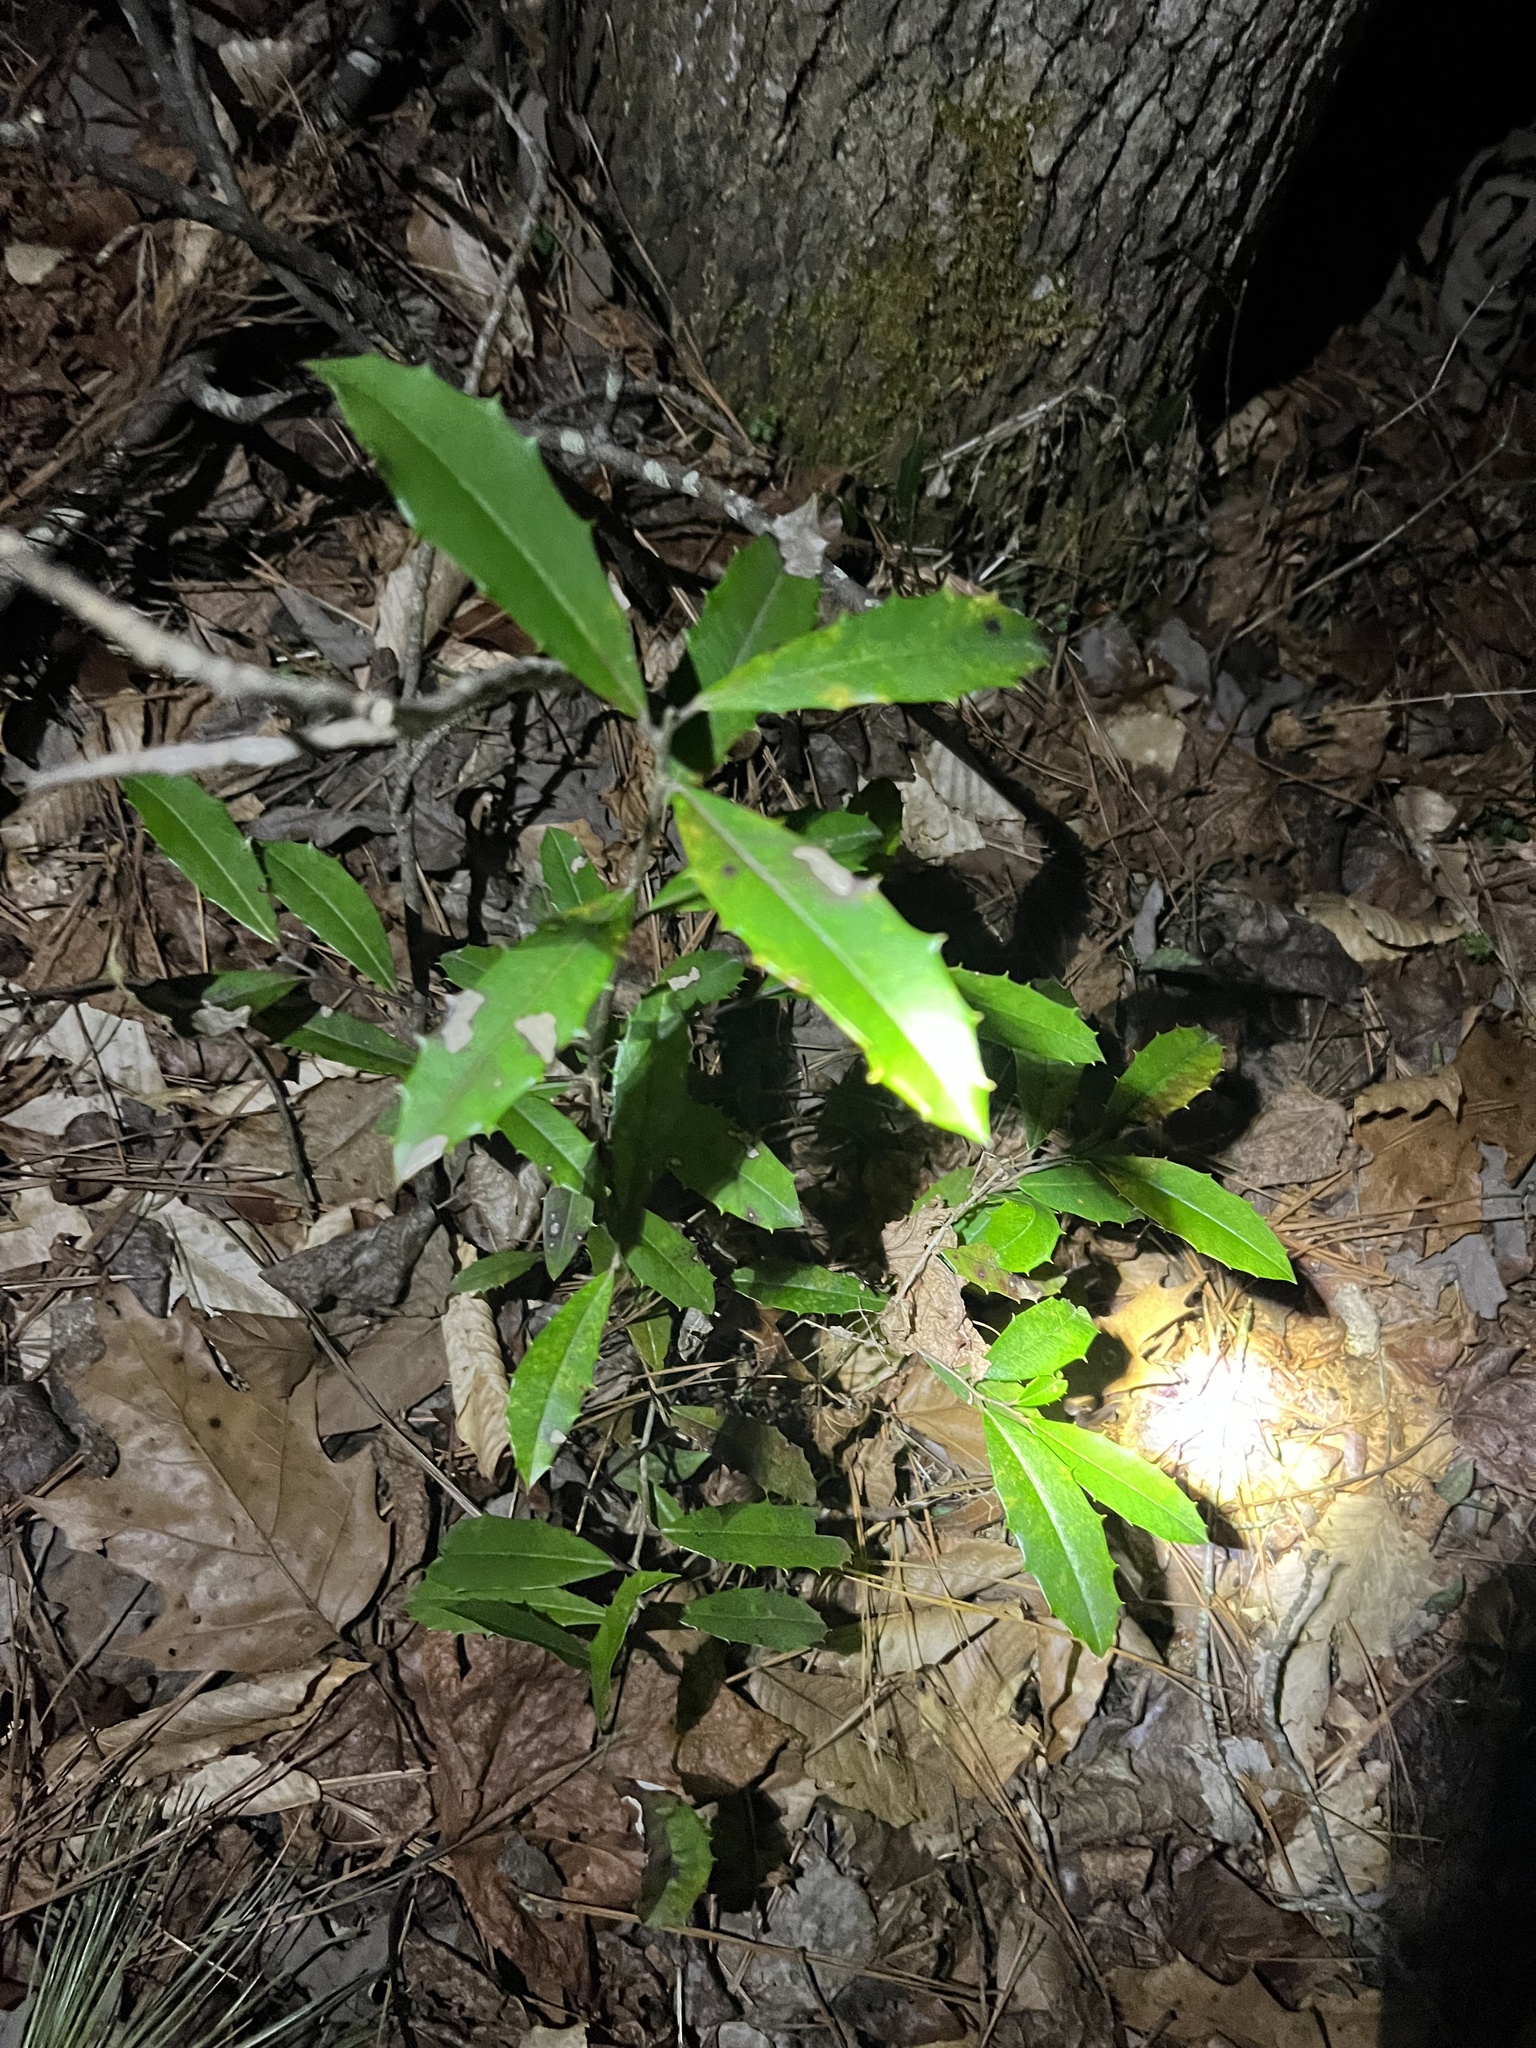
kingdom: Plantae
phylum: Tracheophyta
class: Magnoliopsida
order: Aquifoliales
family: Aquifoliaceae
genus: Ilex
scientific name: Ilex opaca
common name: American holly
